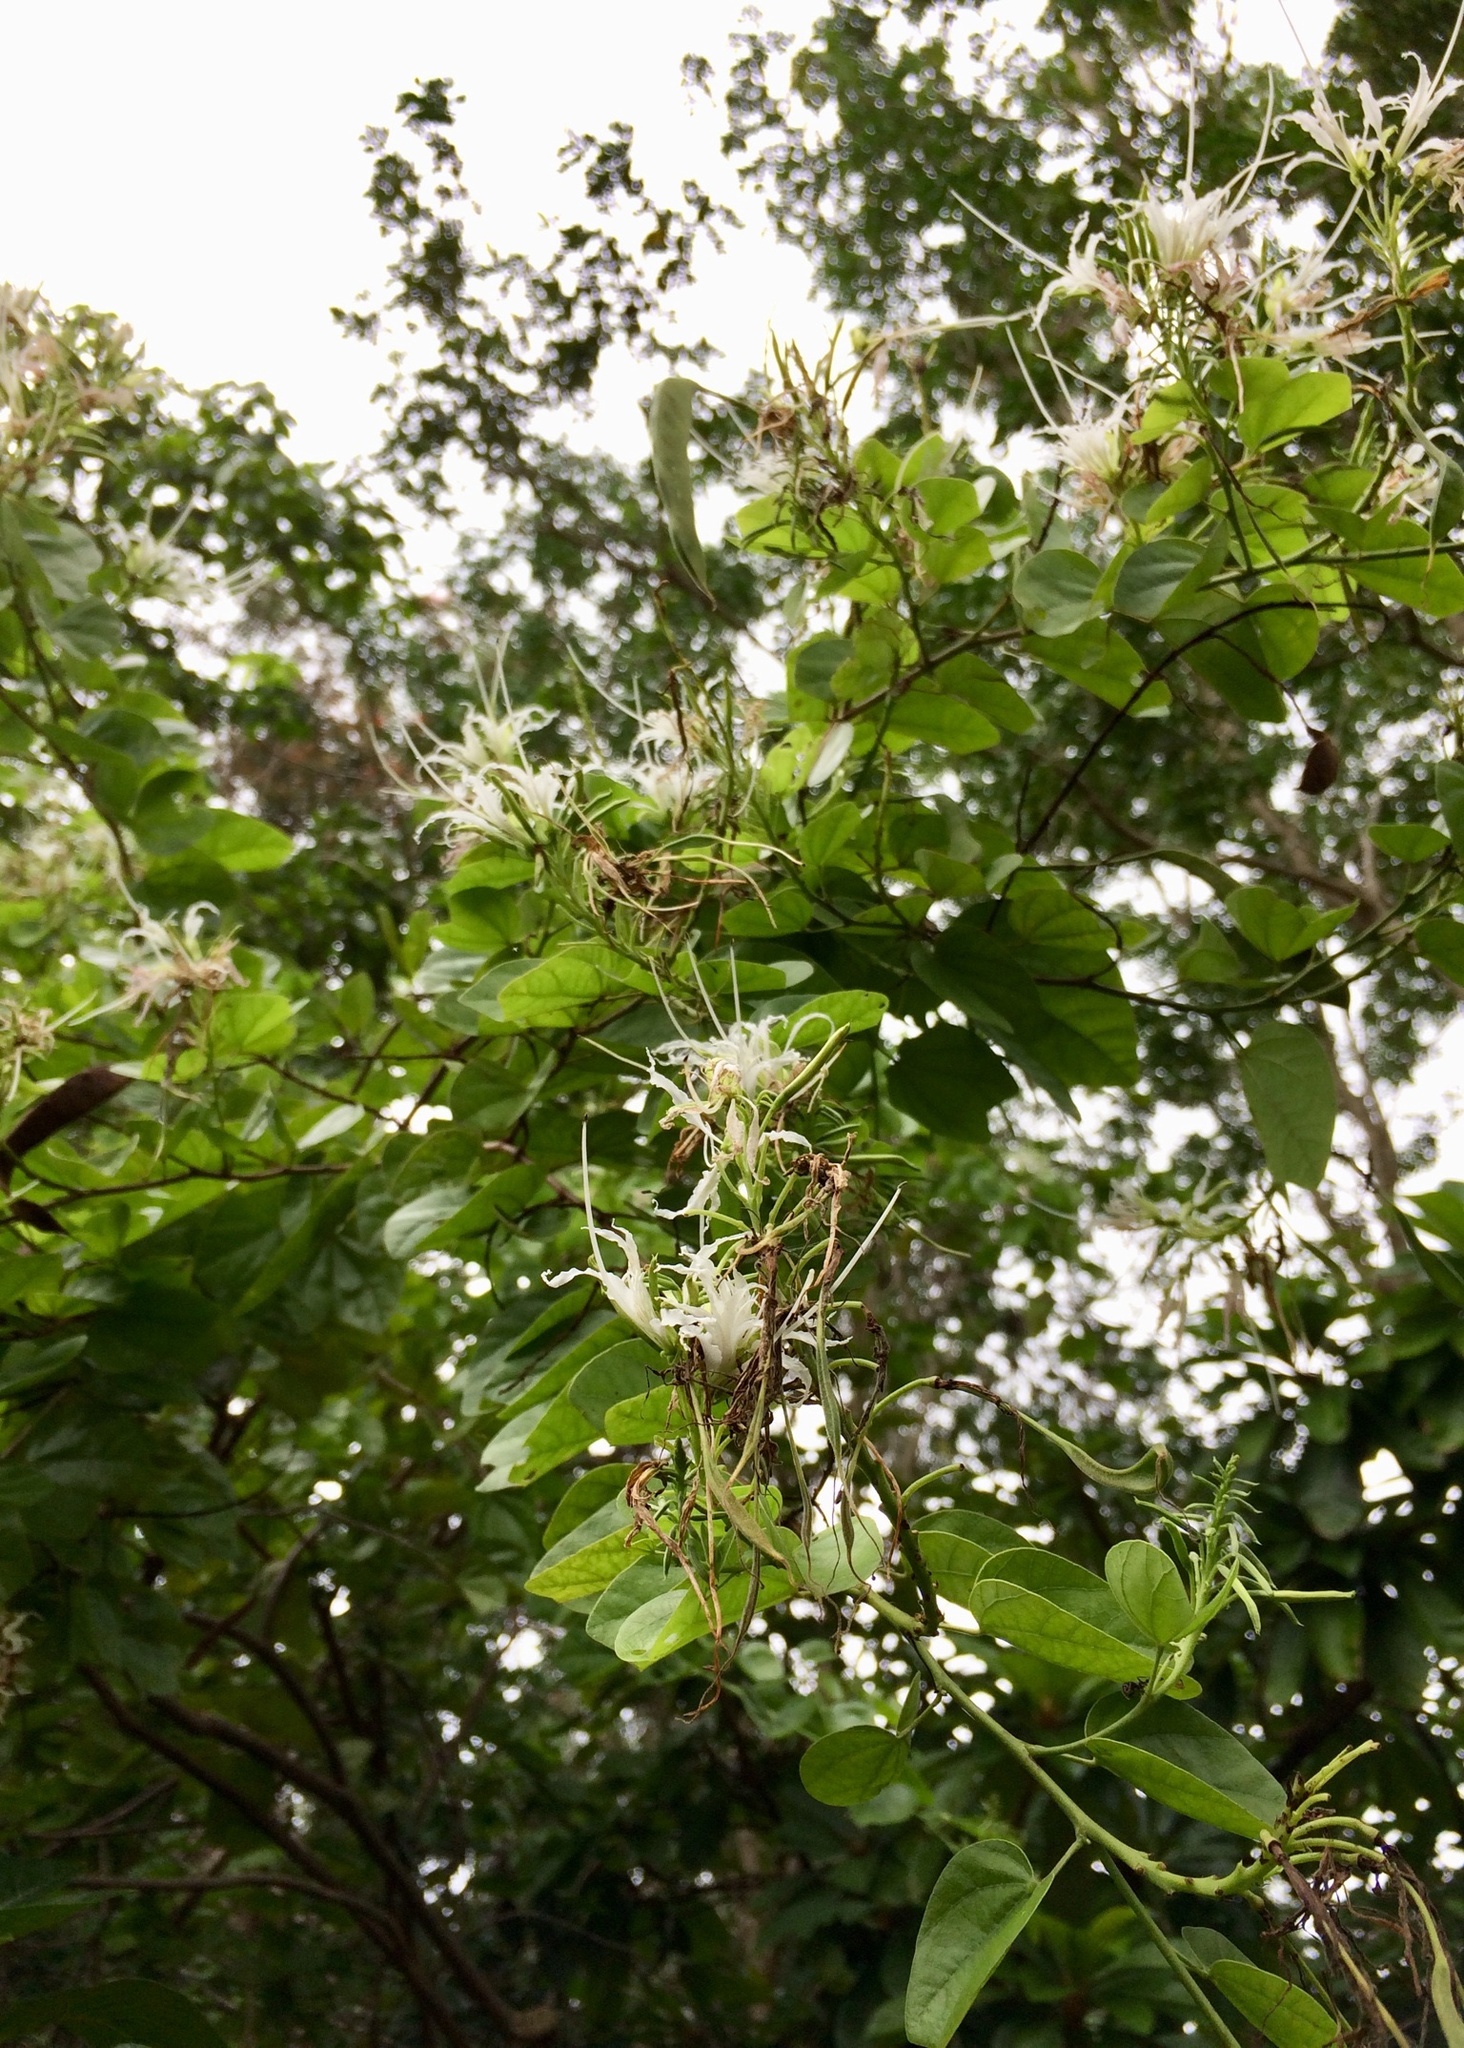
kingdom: Plantae
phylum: Tracheophyta
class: Magnoliopsida
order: Fabales
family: Fabaceae
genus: Bauhinia
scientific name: Bauhinia divaricata
